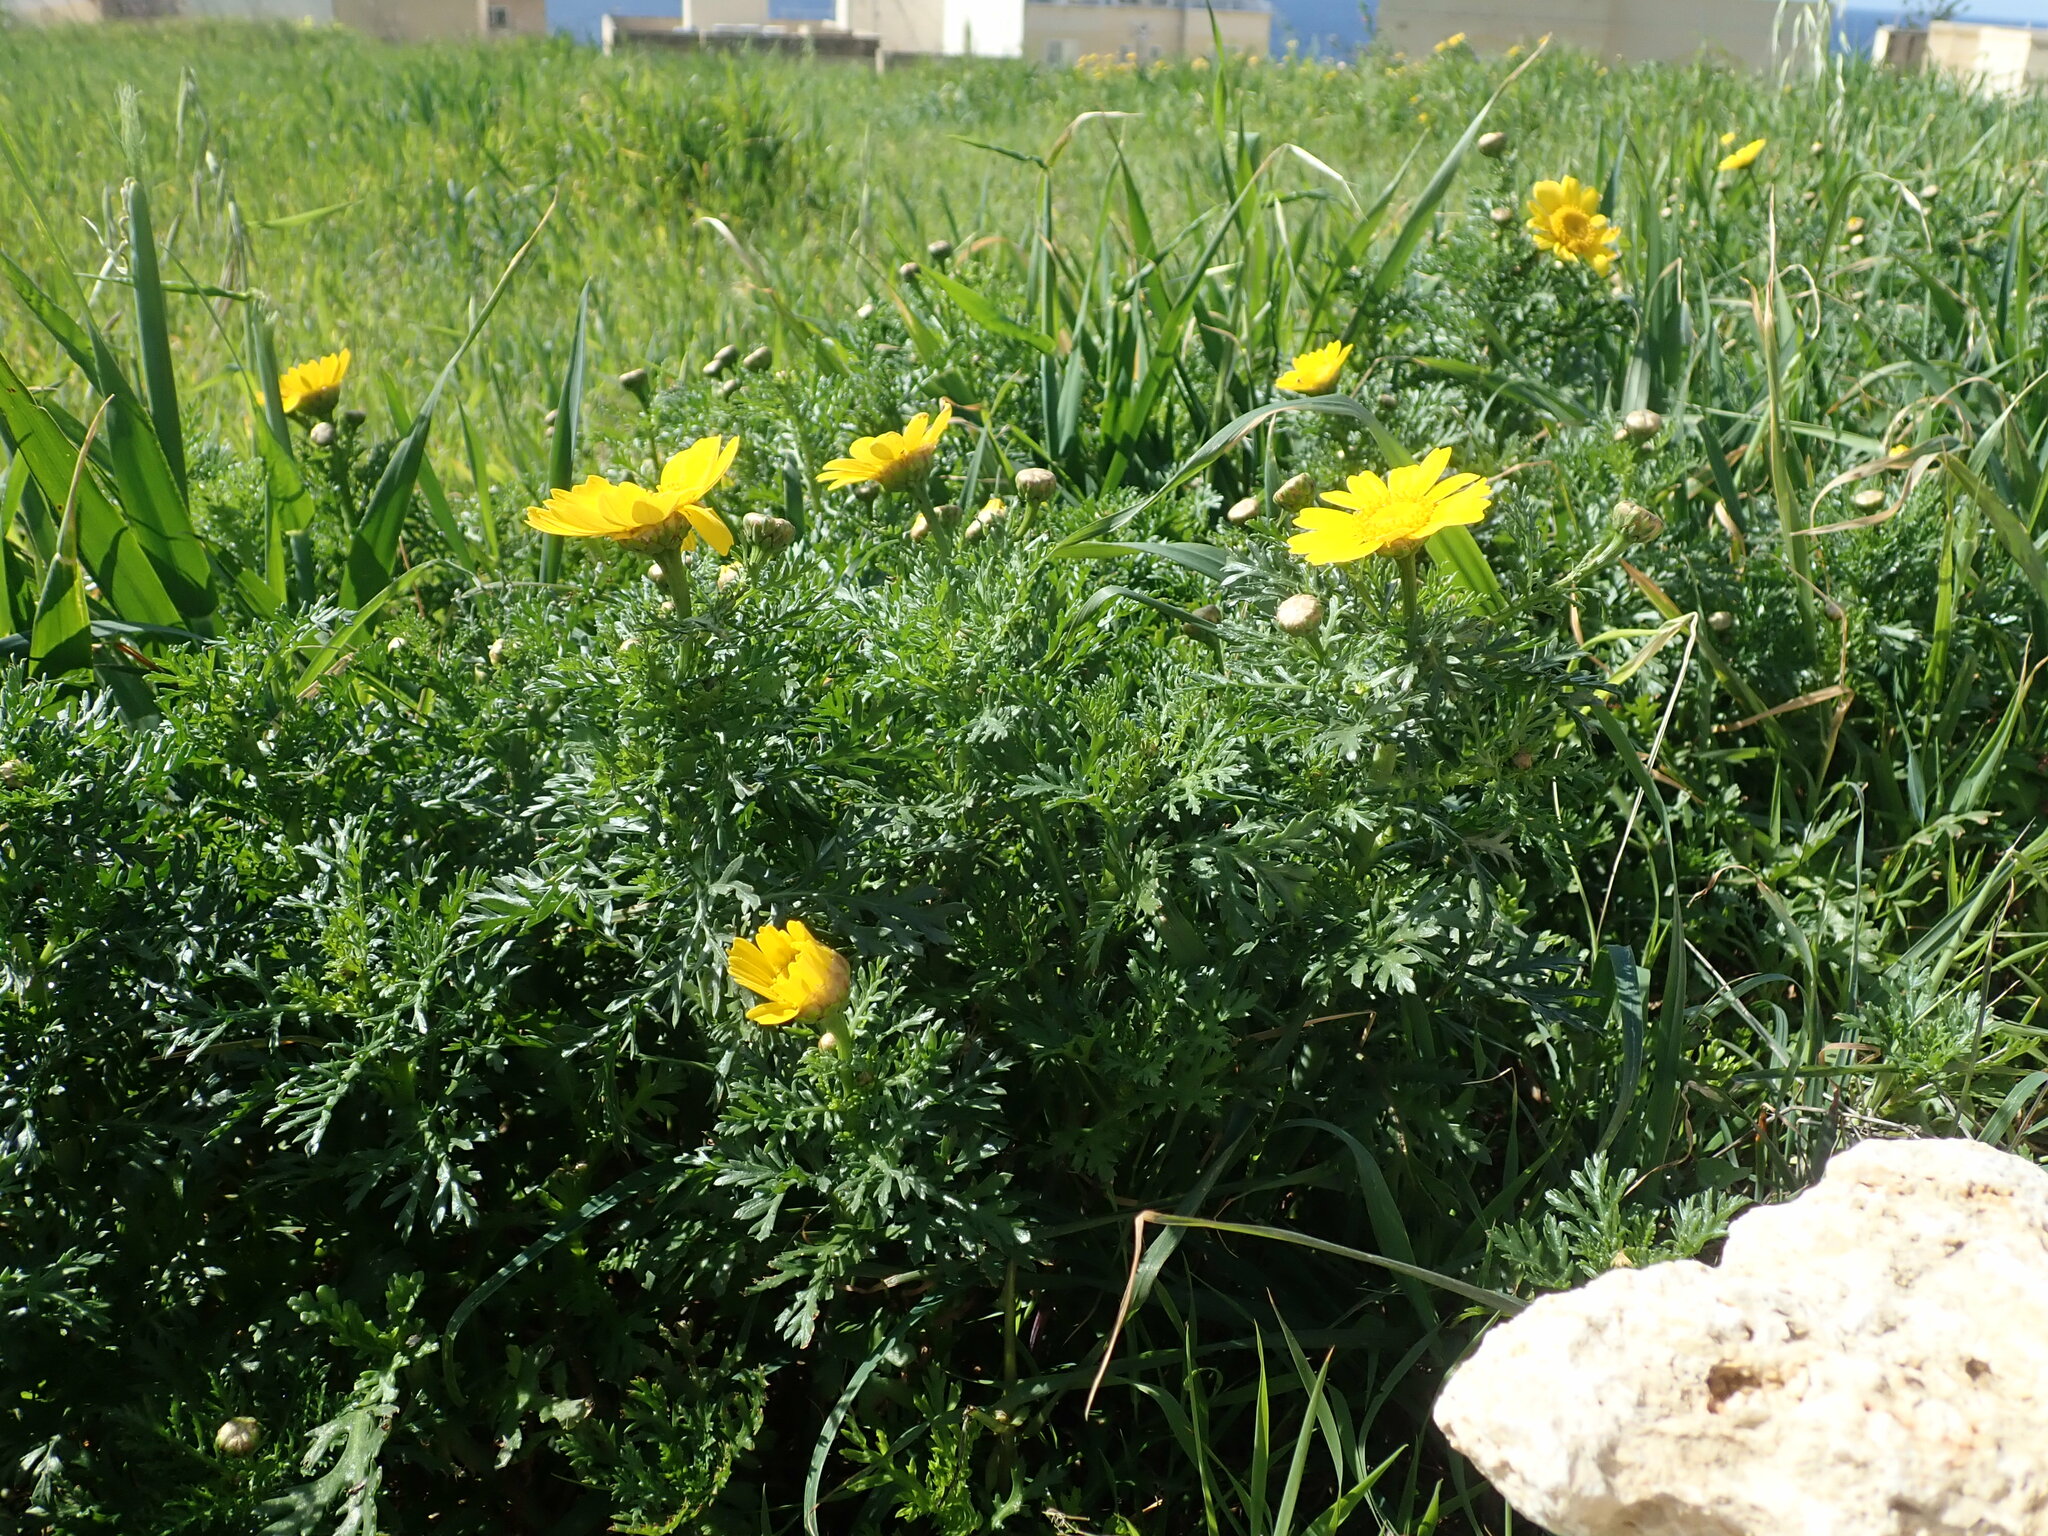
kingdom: Plantae
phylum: Tracheophyta
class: Magnoliopsida
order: Asterales
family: Asteraceae
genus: Glebionis
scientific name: Glebionis coronaria
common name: Crowndaisy
